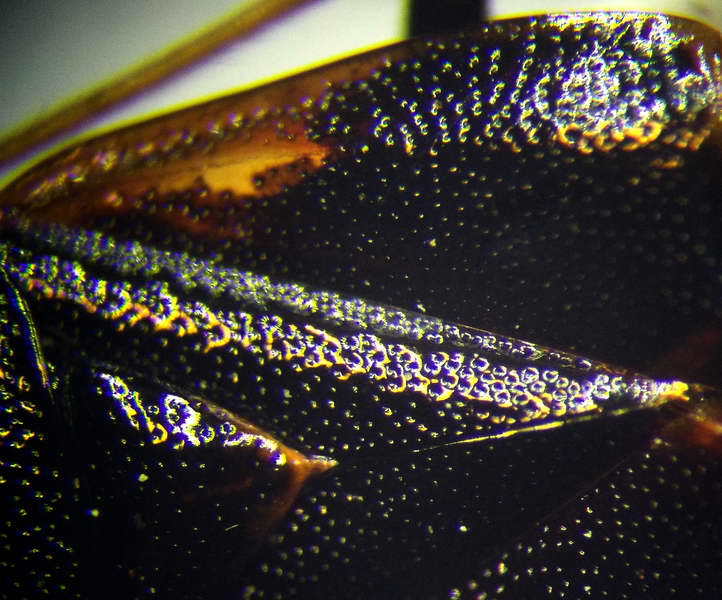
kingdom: Animalia
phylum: Arthropoda
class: Insecta
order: Hemiptera
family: Miridae
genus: Deraeocoris
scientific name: Deraeocoris ruber
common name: Plant bug
